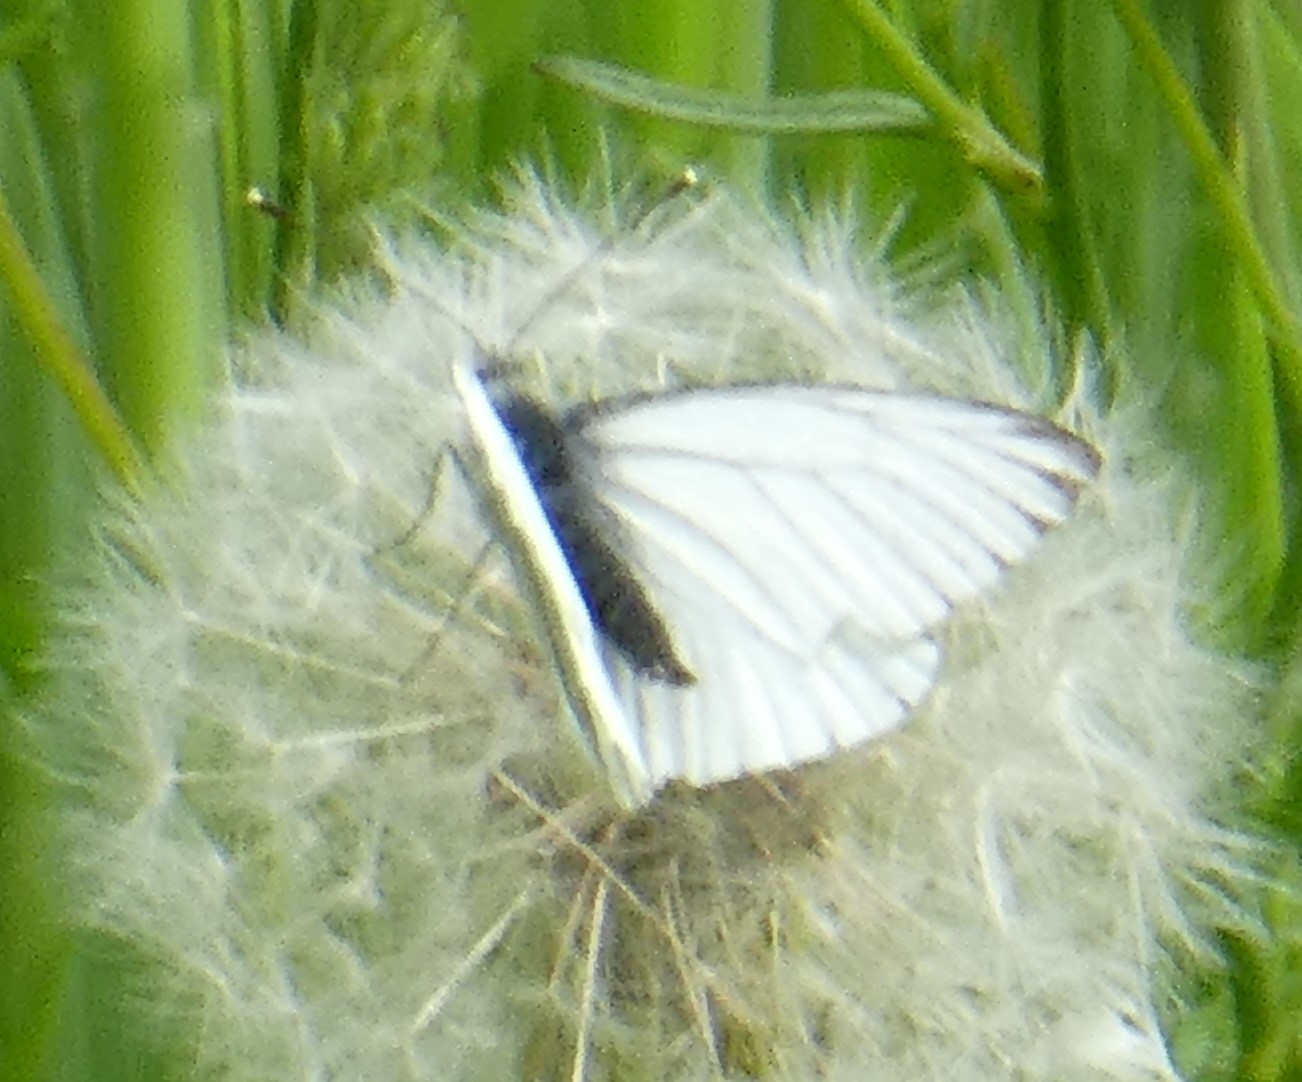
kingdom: Animalia
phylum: Arthropoda
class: Insecta
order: Lepidoptera
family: Pieridae
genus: Pieris
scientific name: Pieris napi
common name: Green-veined white
